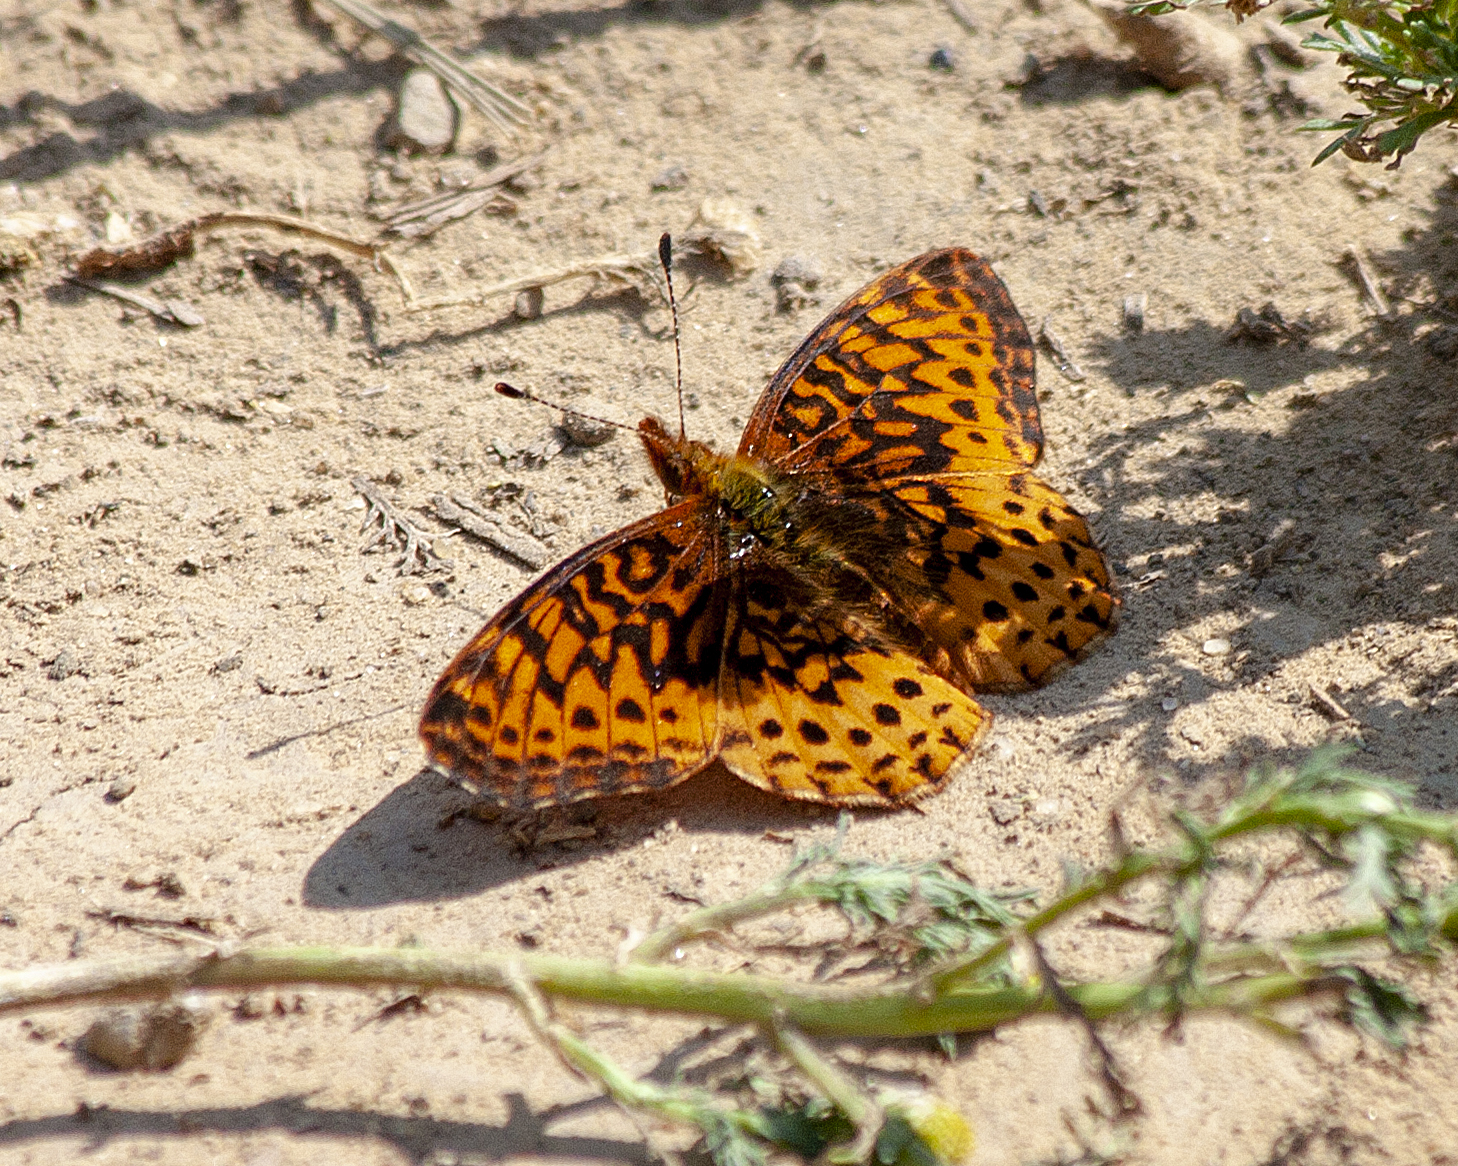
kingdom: Animalia
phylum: Arthropoda
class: Insecta
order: Lepidoptera
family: Nymphalidae
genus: Clossiana
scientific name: Clossiana toddi
